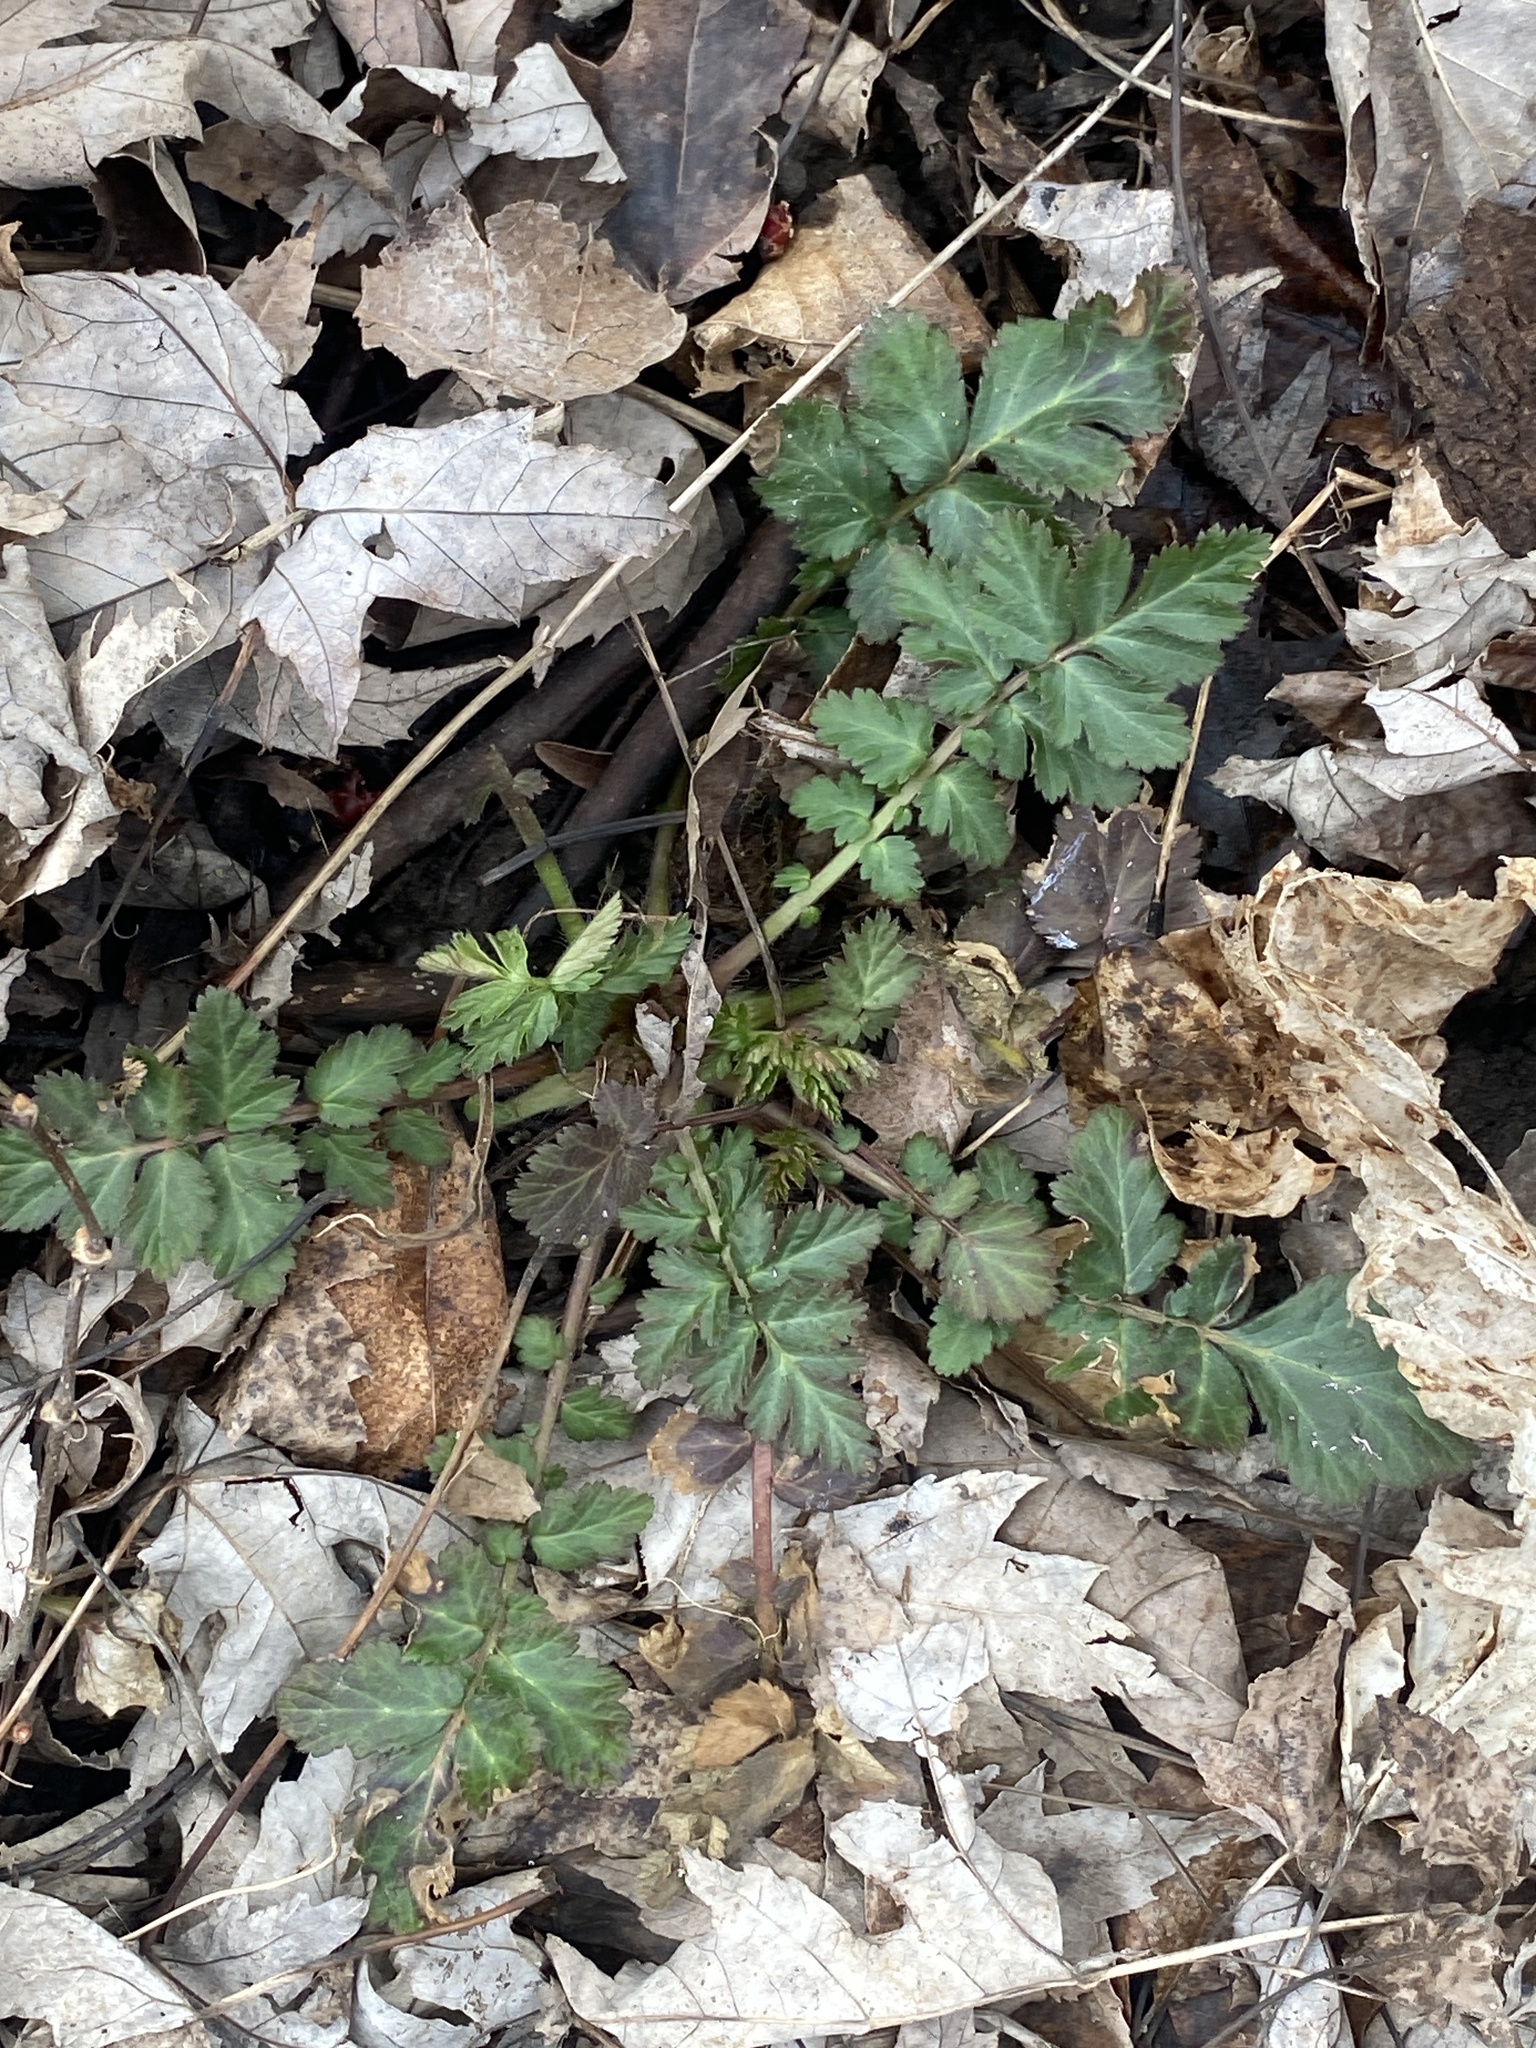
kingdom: Plantae
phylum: Tracheophyta
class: Magnoliopsida
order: Rosales
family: Rosaceae
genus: Geum
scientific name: Geum canadense
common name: White avens
